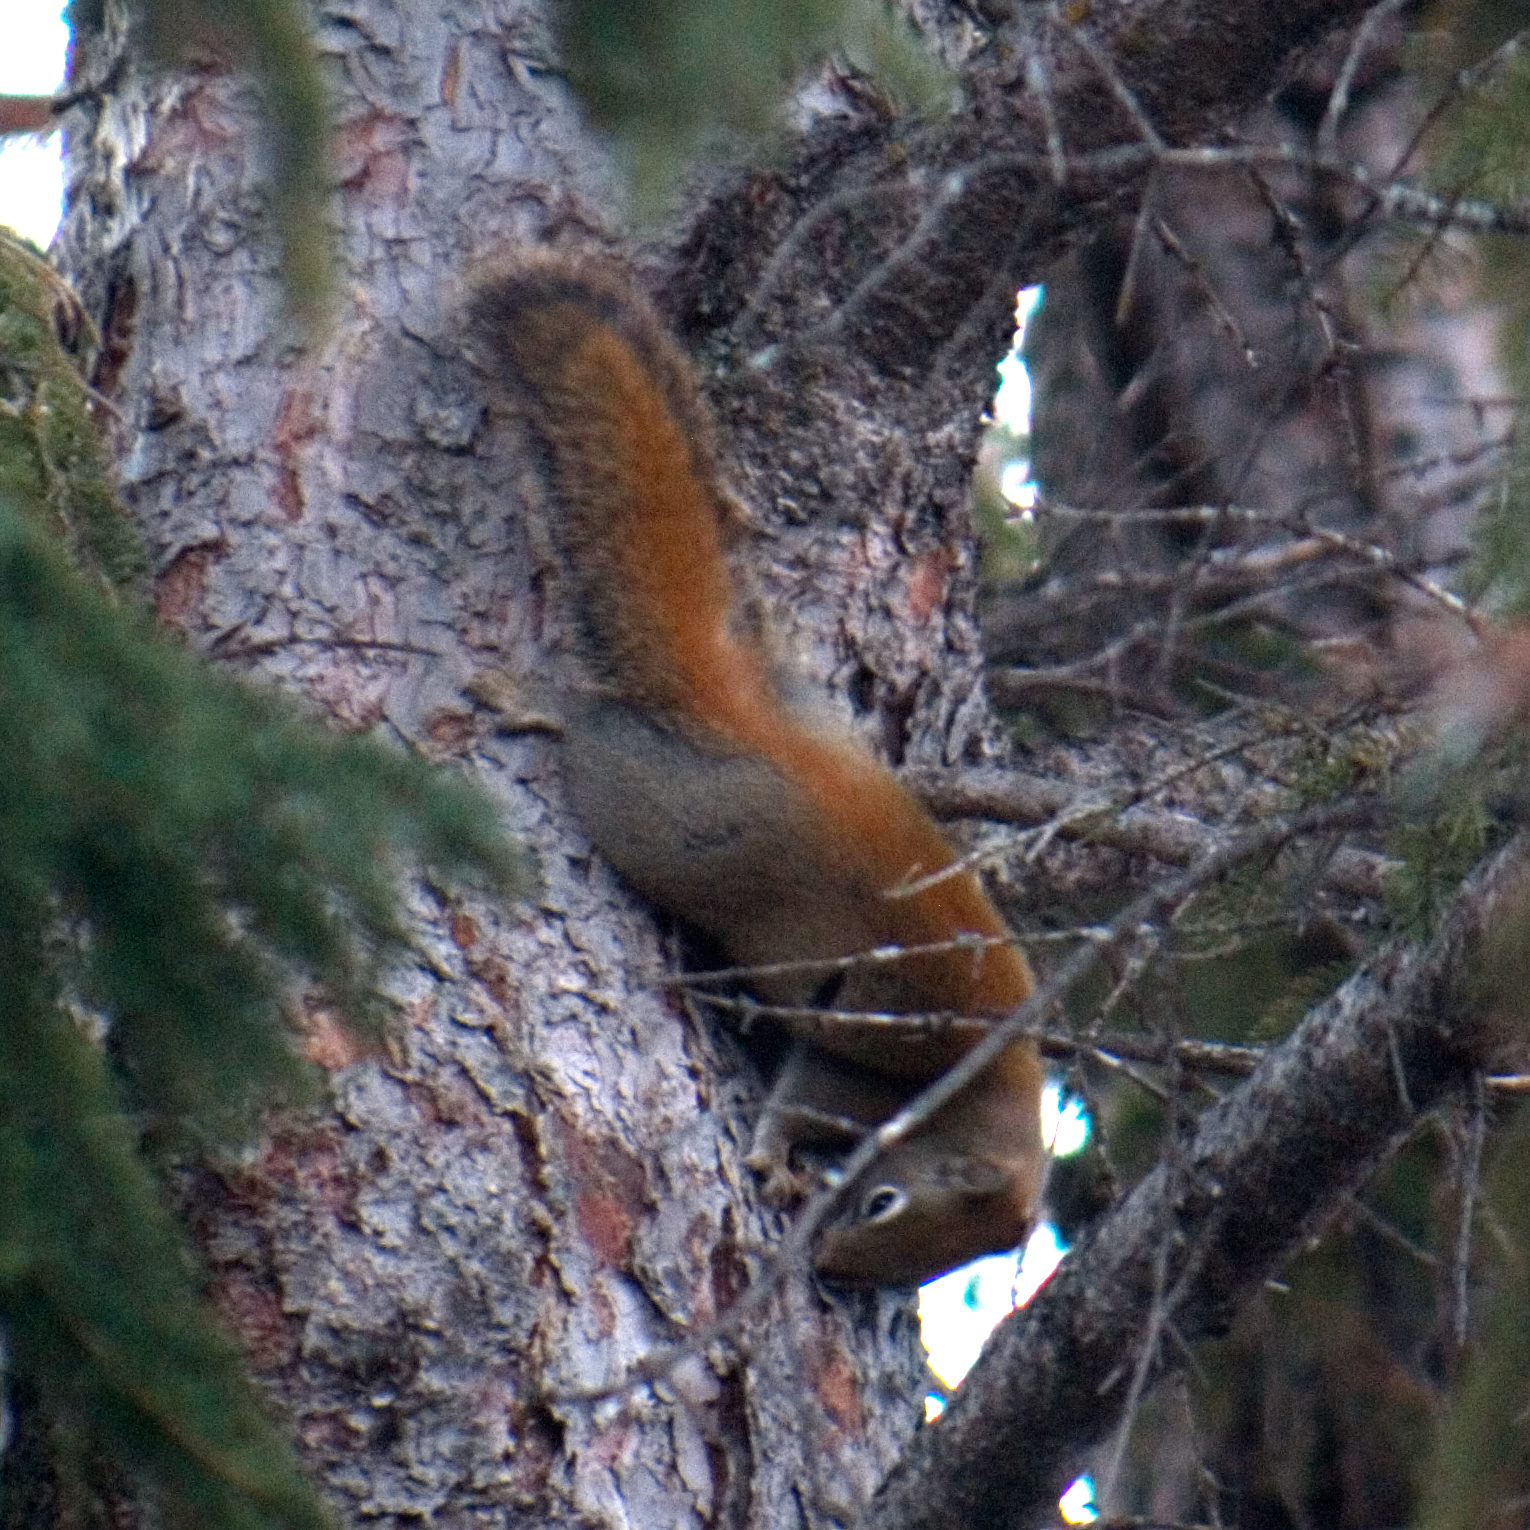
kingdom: Animalia
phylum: Chordata
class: Mammalia
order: Rodentia
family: Sciuridae
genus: Tamiasciurus
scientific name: Tamiasciurus hudsonicus
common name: Red squirrel
